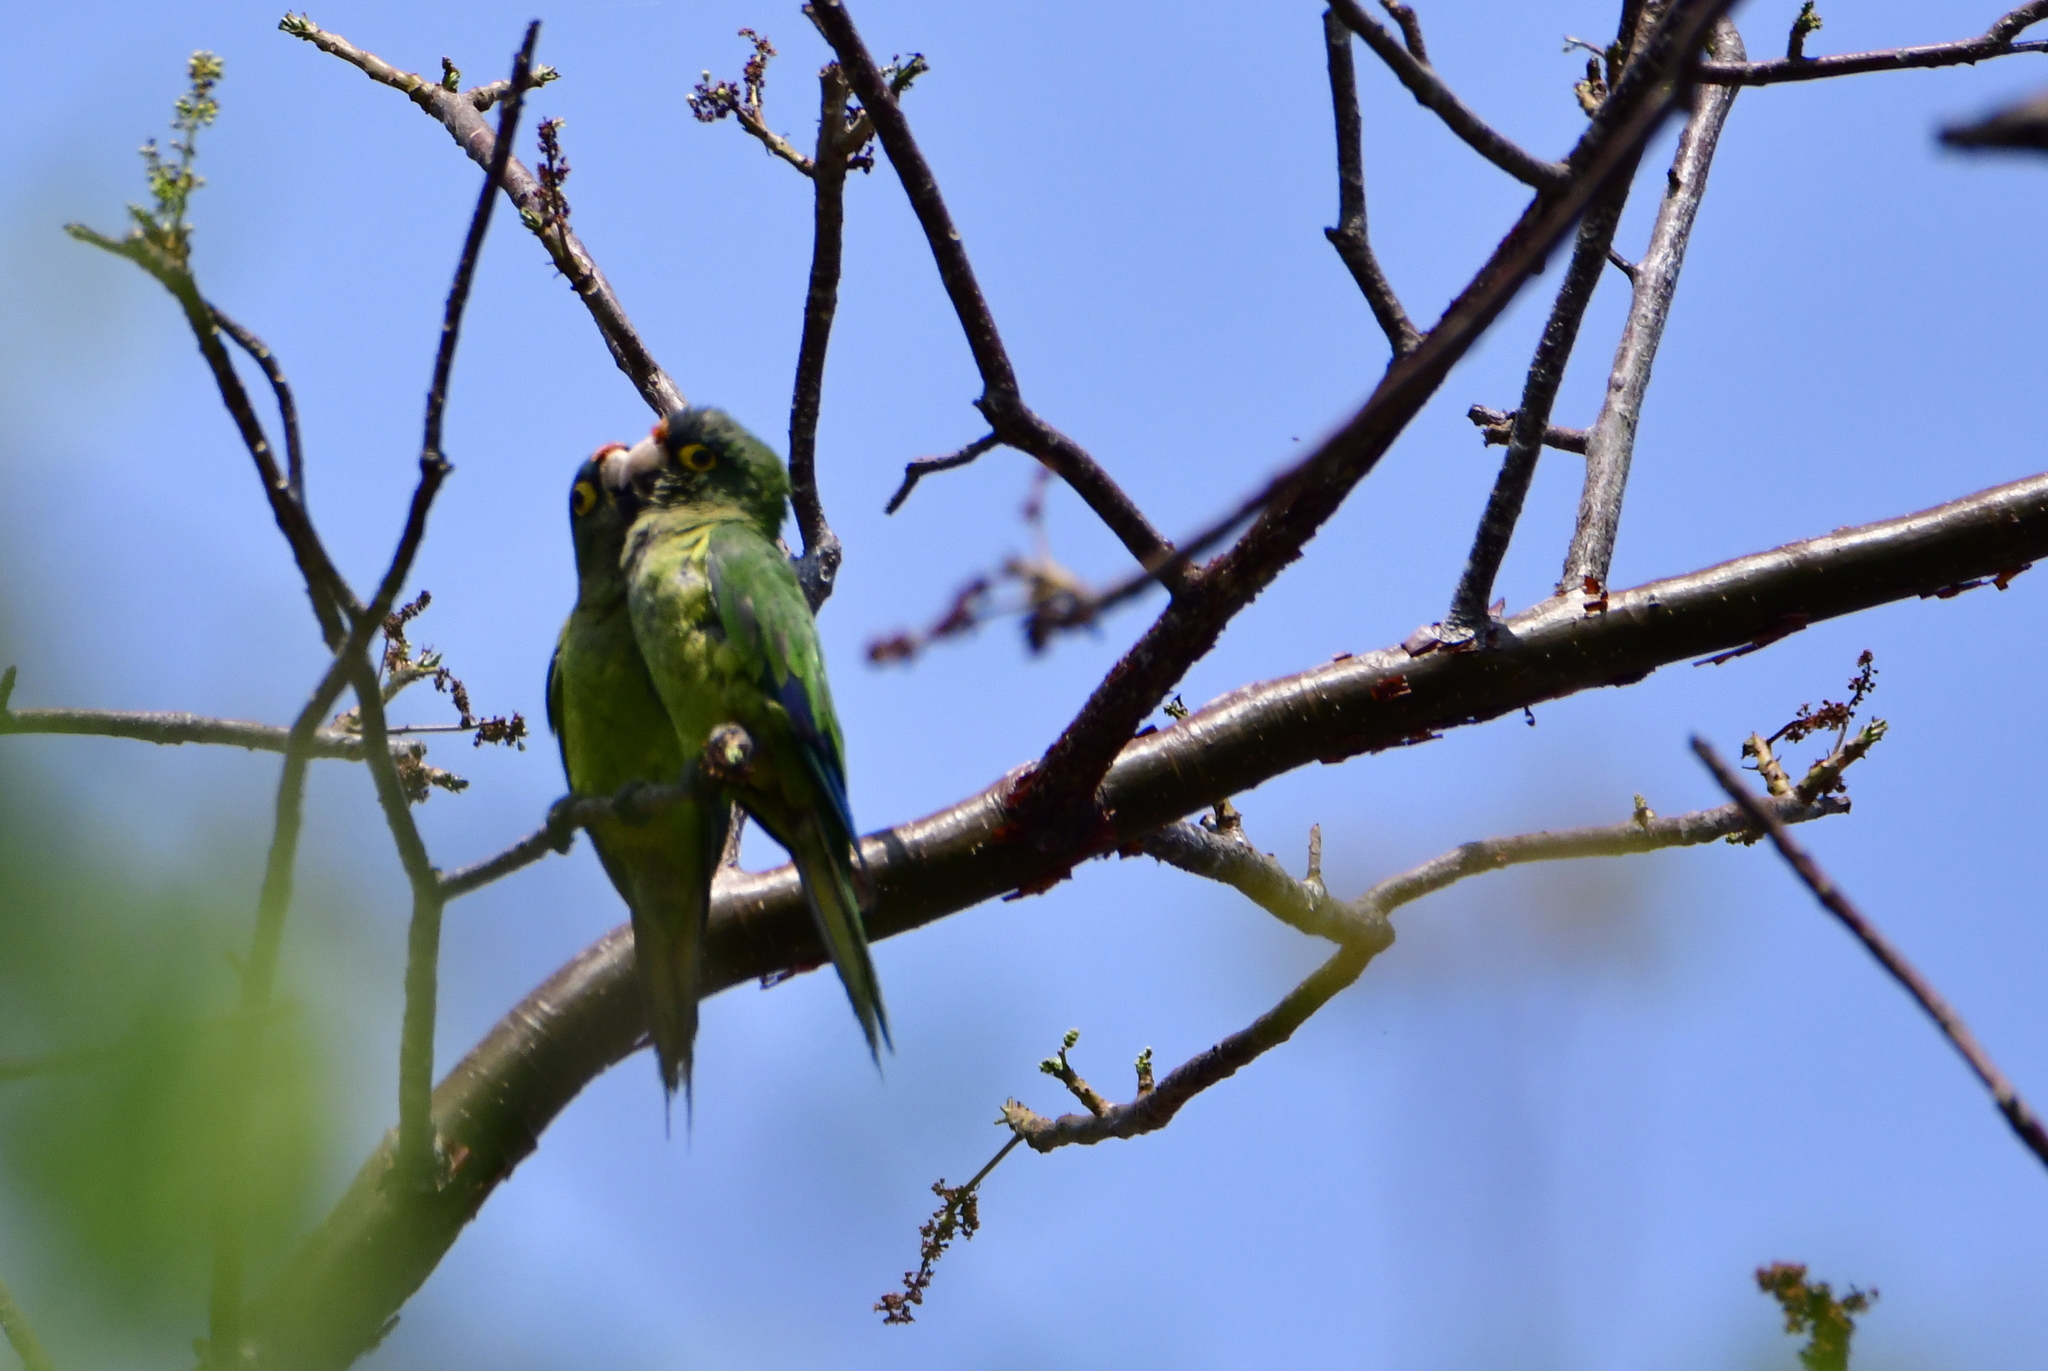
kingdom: Animalia
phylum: Chordata
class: Aves
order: Psittaciformes
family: Psittacidae
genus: Aratinga
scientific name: Aratinga canicularis
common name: Orange-fronted parakeet
